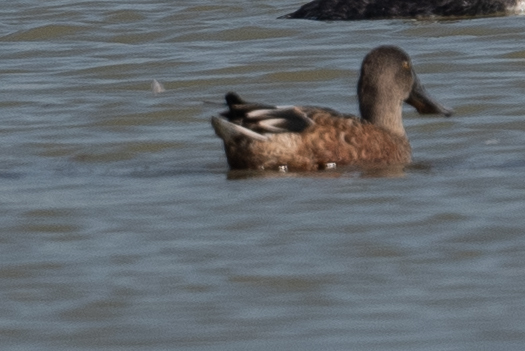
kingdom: Animalia
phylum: Chordata
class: Aves
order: Anseriformes
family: Anatidae
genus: Spatula
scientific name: Spatula clypeata
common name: Northern shoveler
